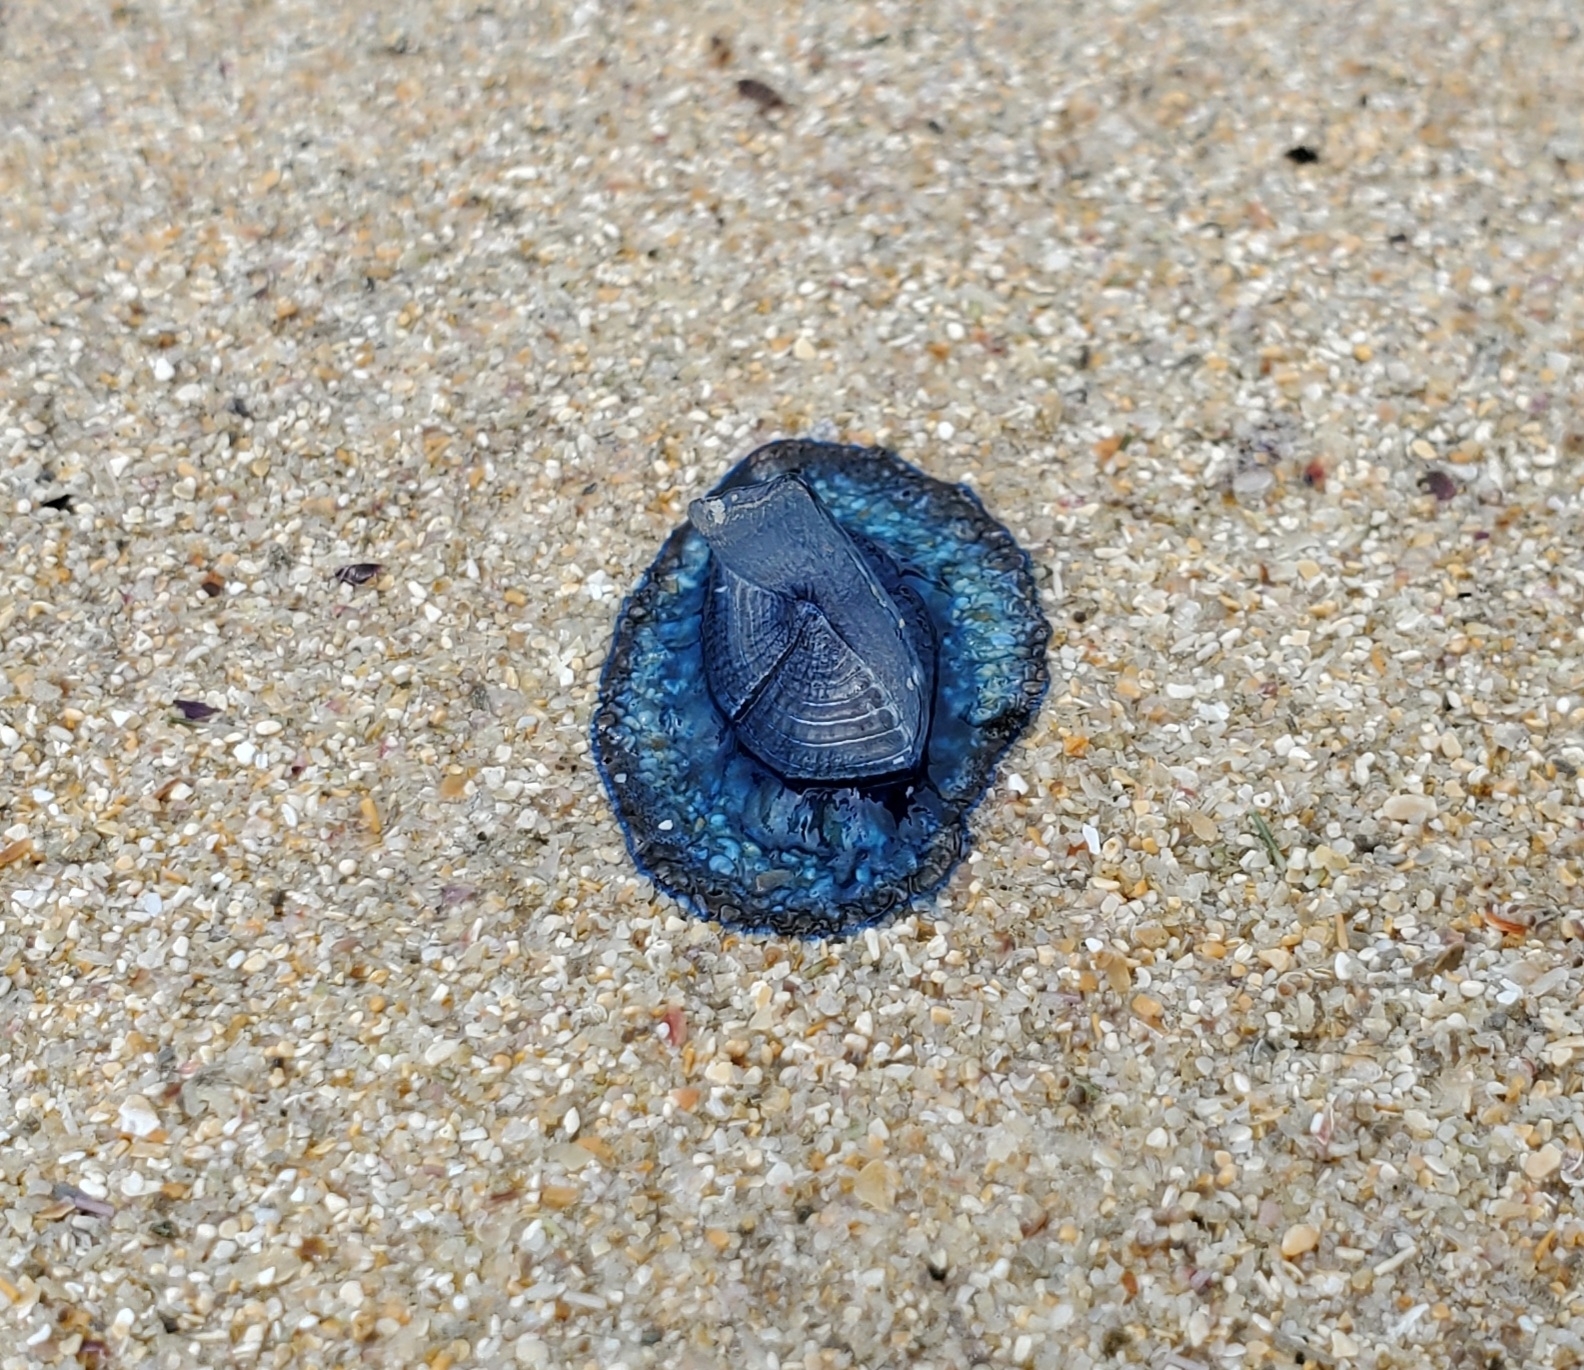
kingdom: Animalia
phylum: Cnidaria
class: Hydrozoa
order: Anthoathecata
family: Porpitidae
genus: Velella
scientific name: Velella velella
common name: By-the-wind-sailor
